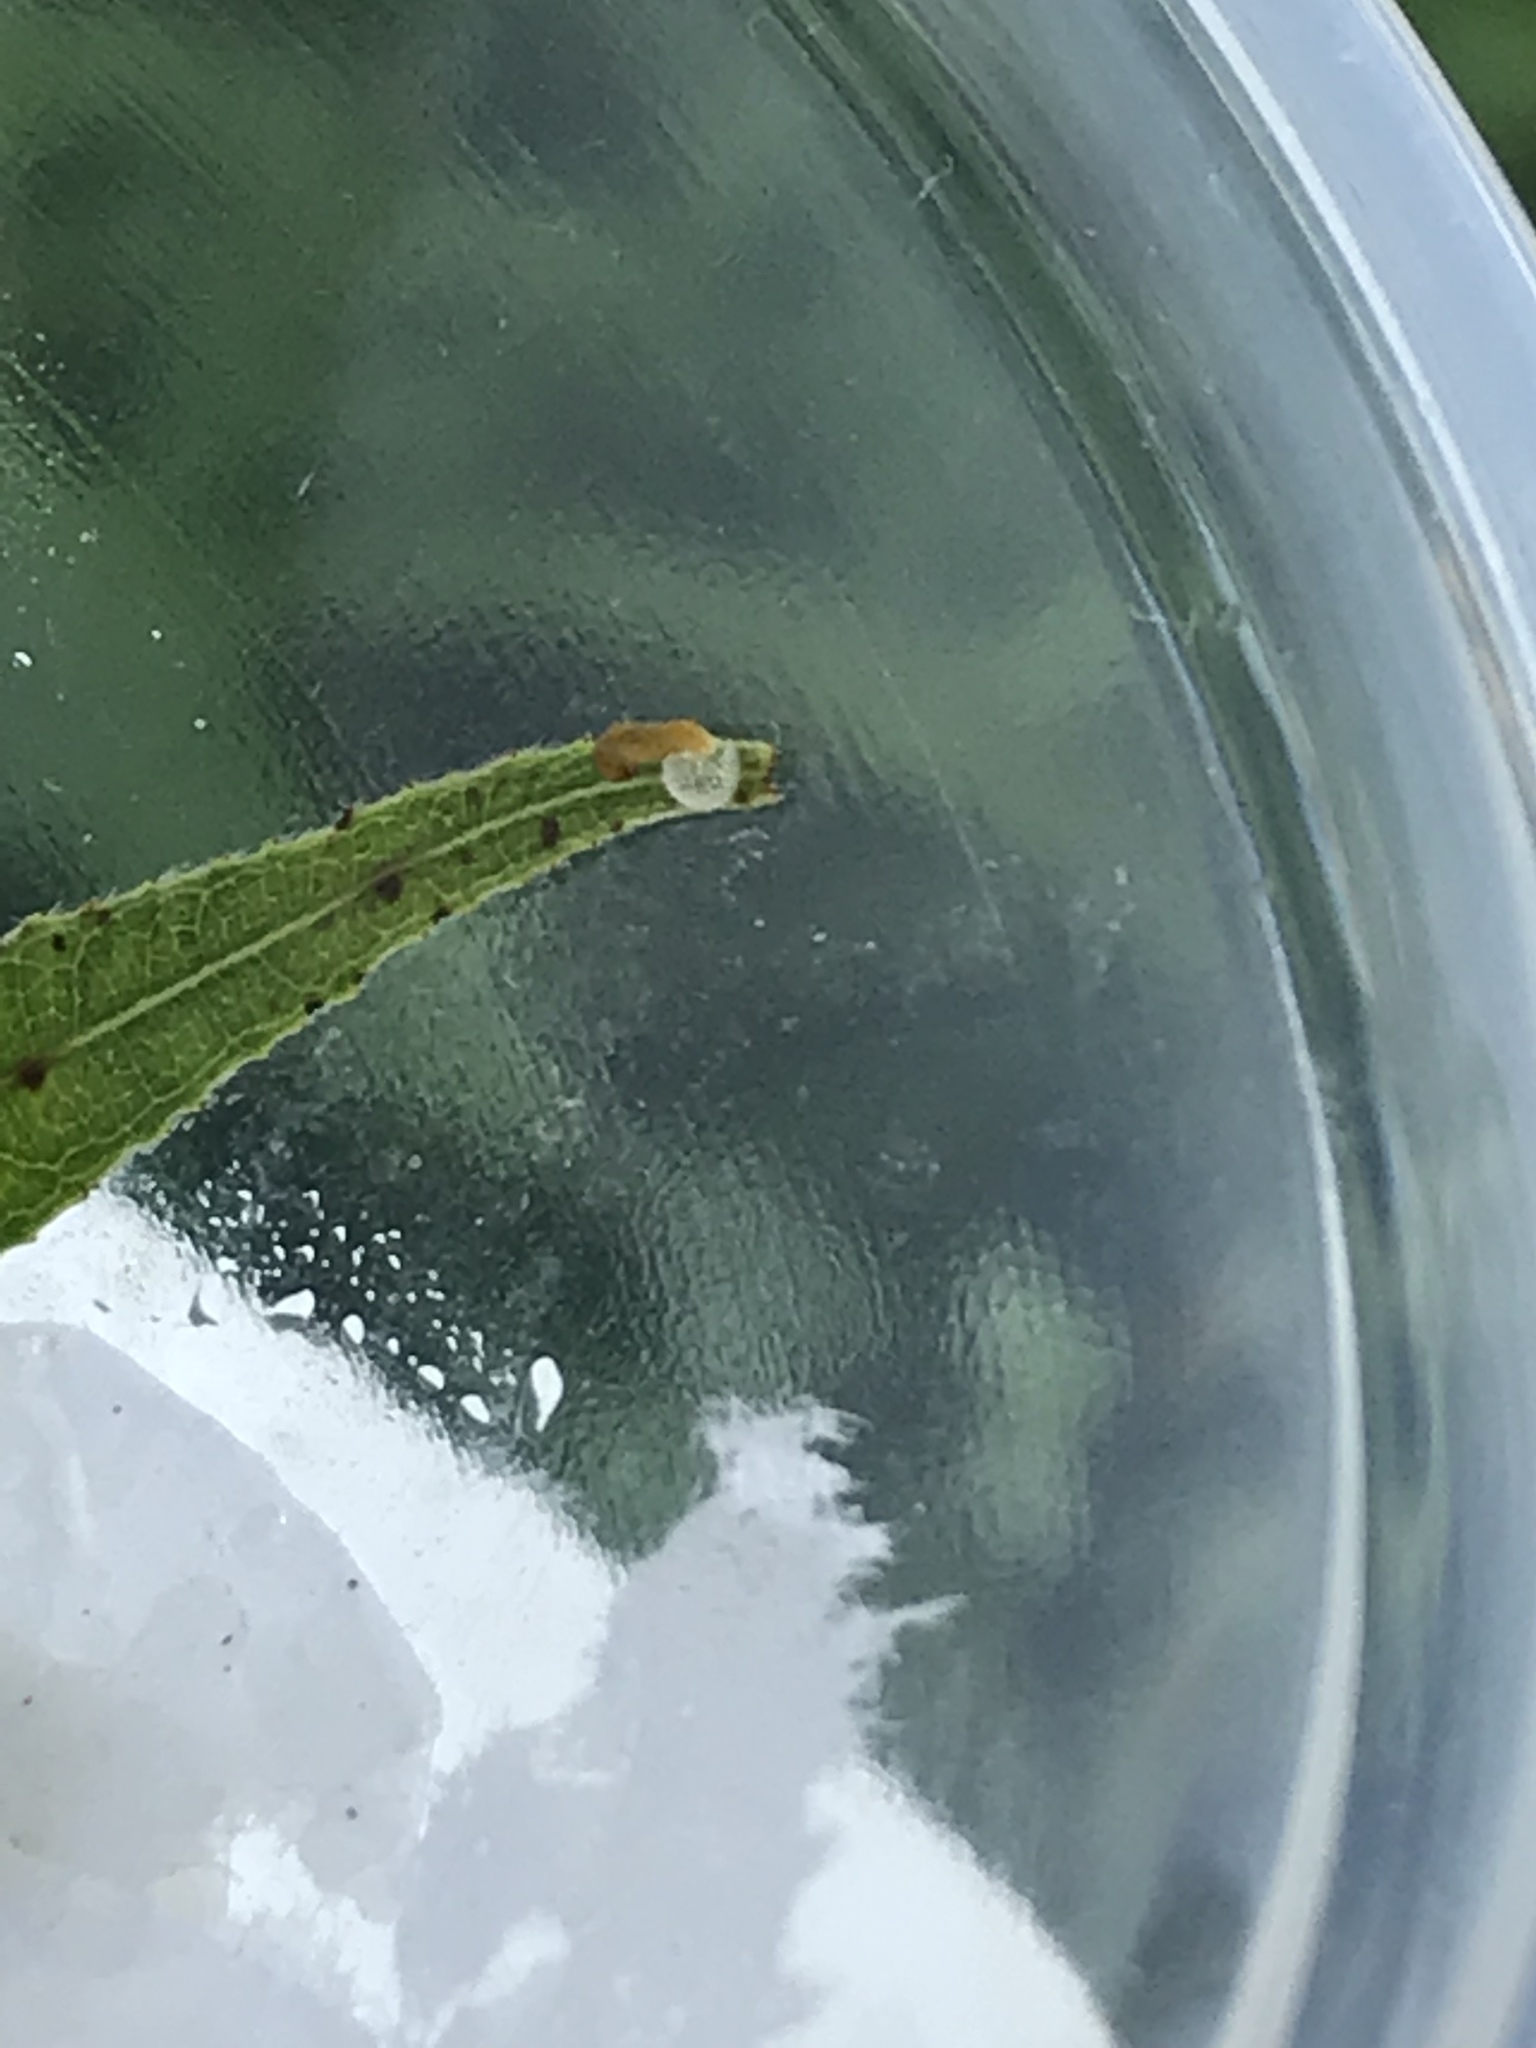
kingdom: Animalia
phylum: Arthropoda
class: Insecta
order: Lepidoptera
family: Nymphalidae
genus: Limenitis
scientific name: Limenitis astyanax
